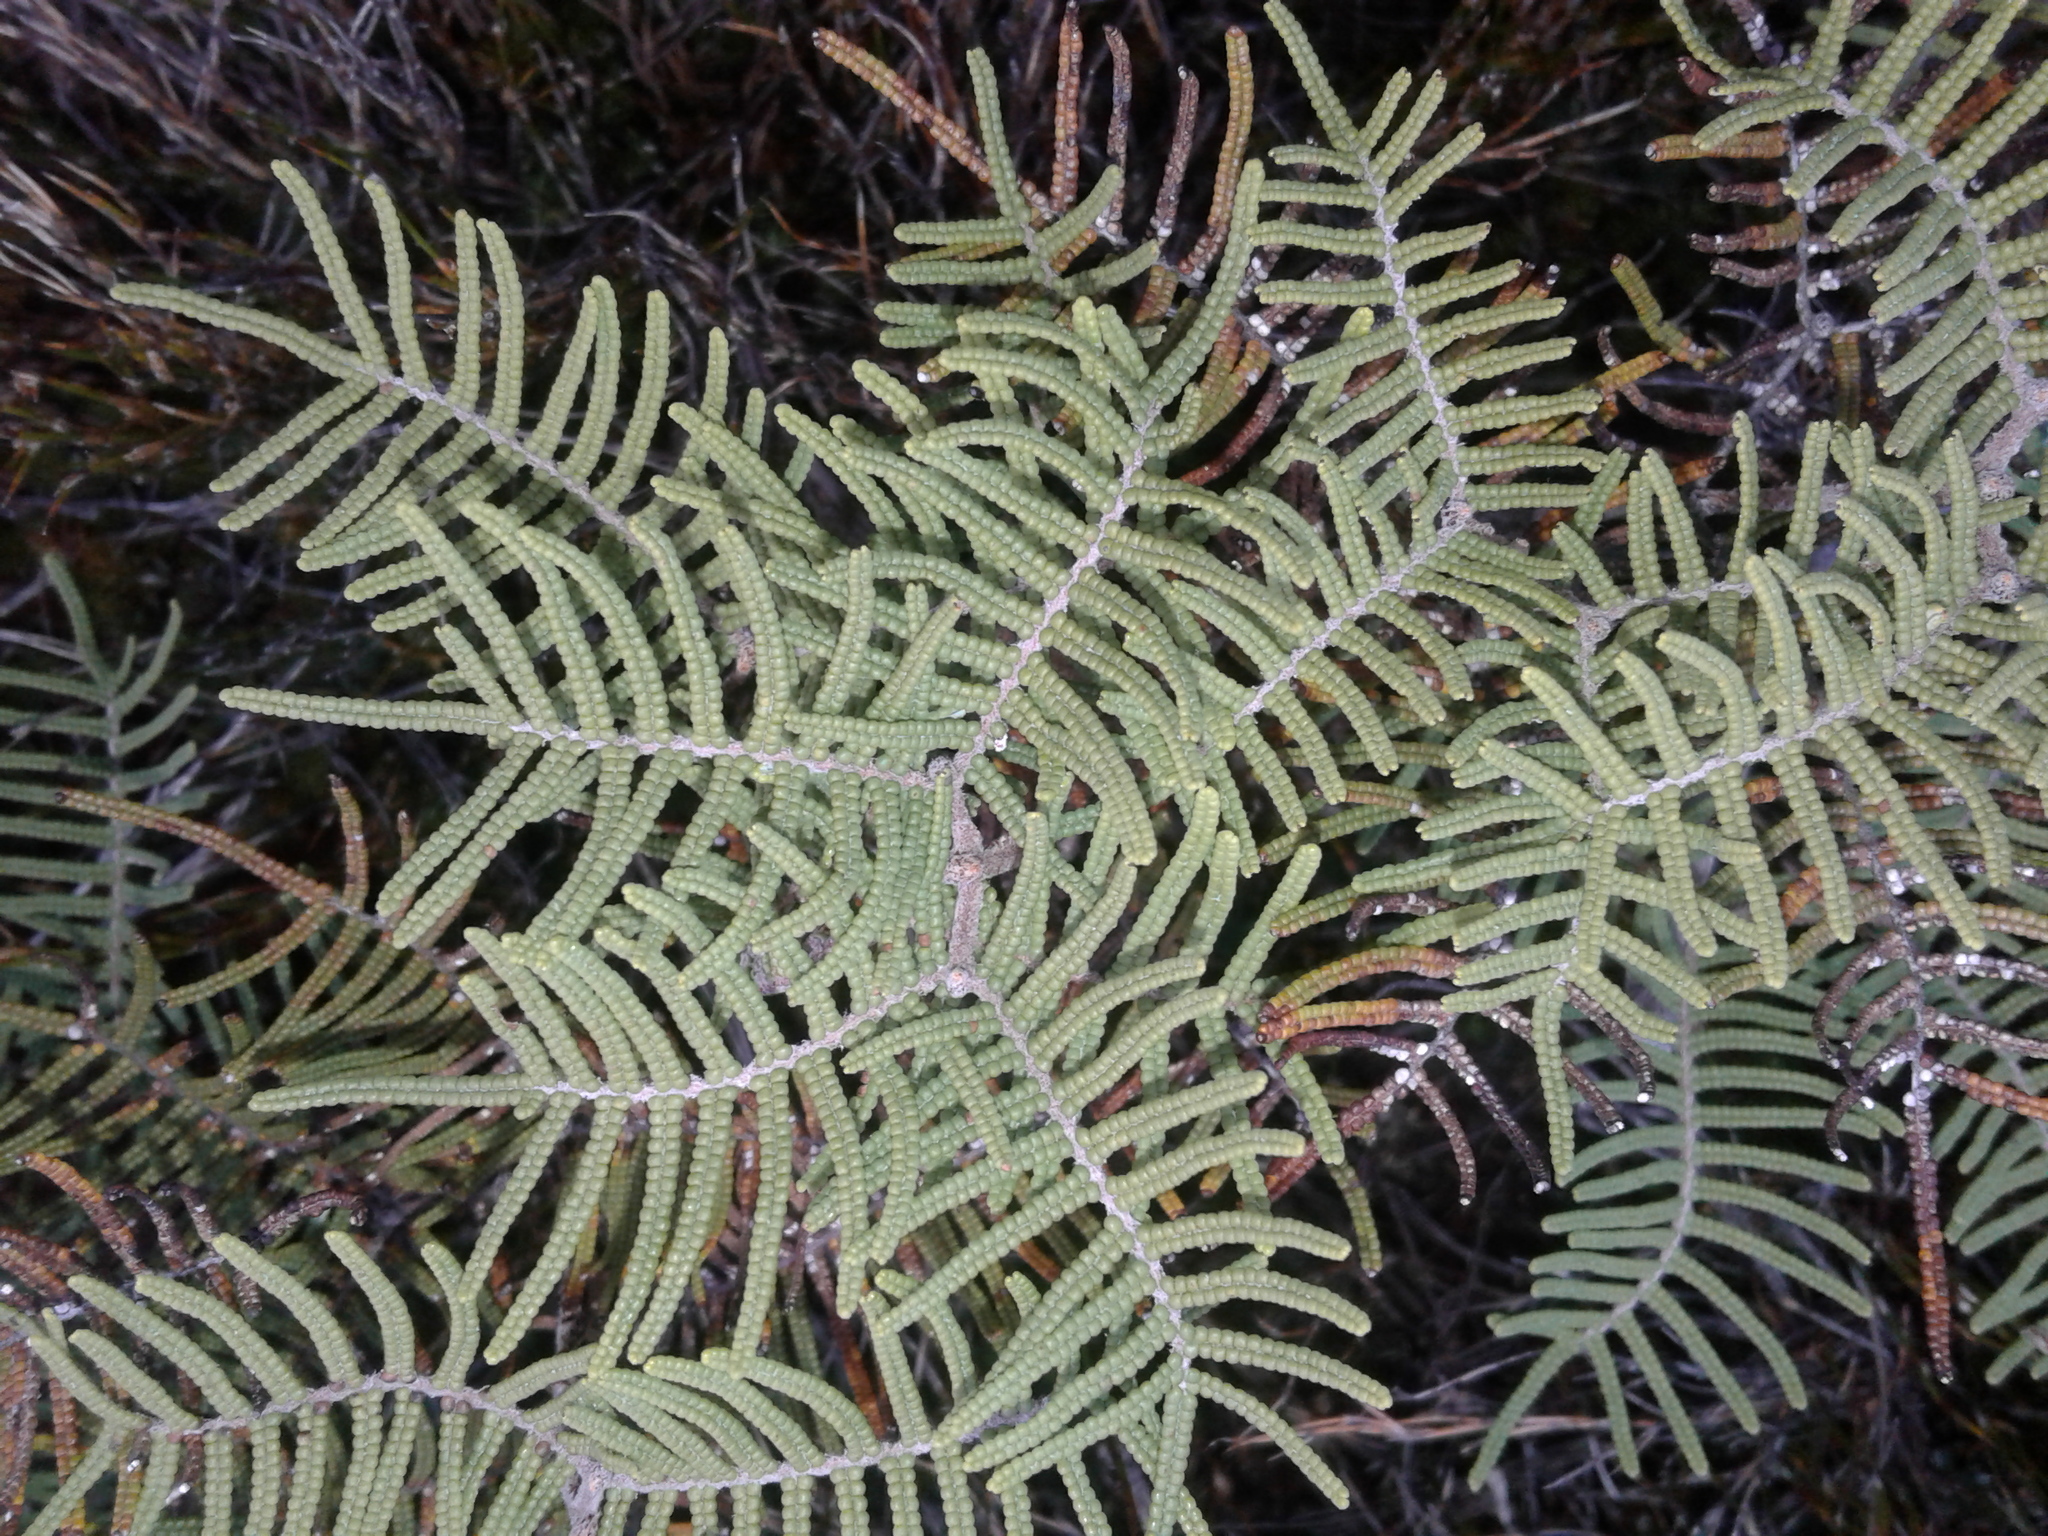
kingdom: Plantae
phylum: Tracheophyta
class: Polypodiopsida
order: Gleicheniales
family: Gleicheniaceae
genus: Gleichenia
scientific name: Gleichenia alpina
